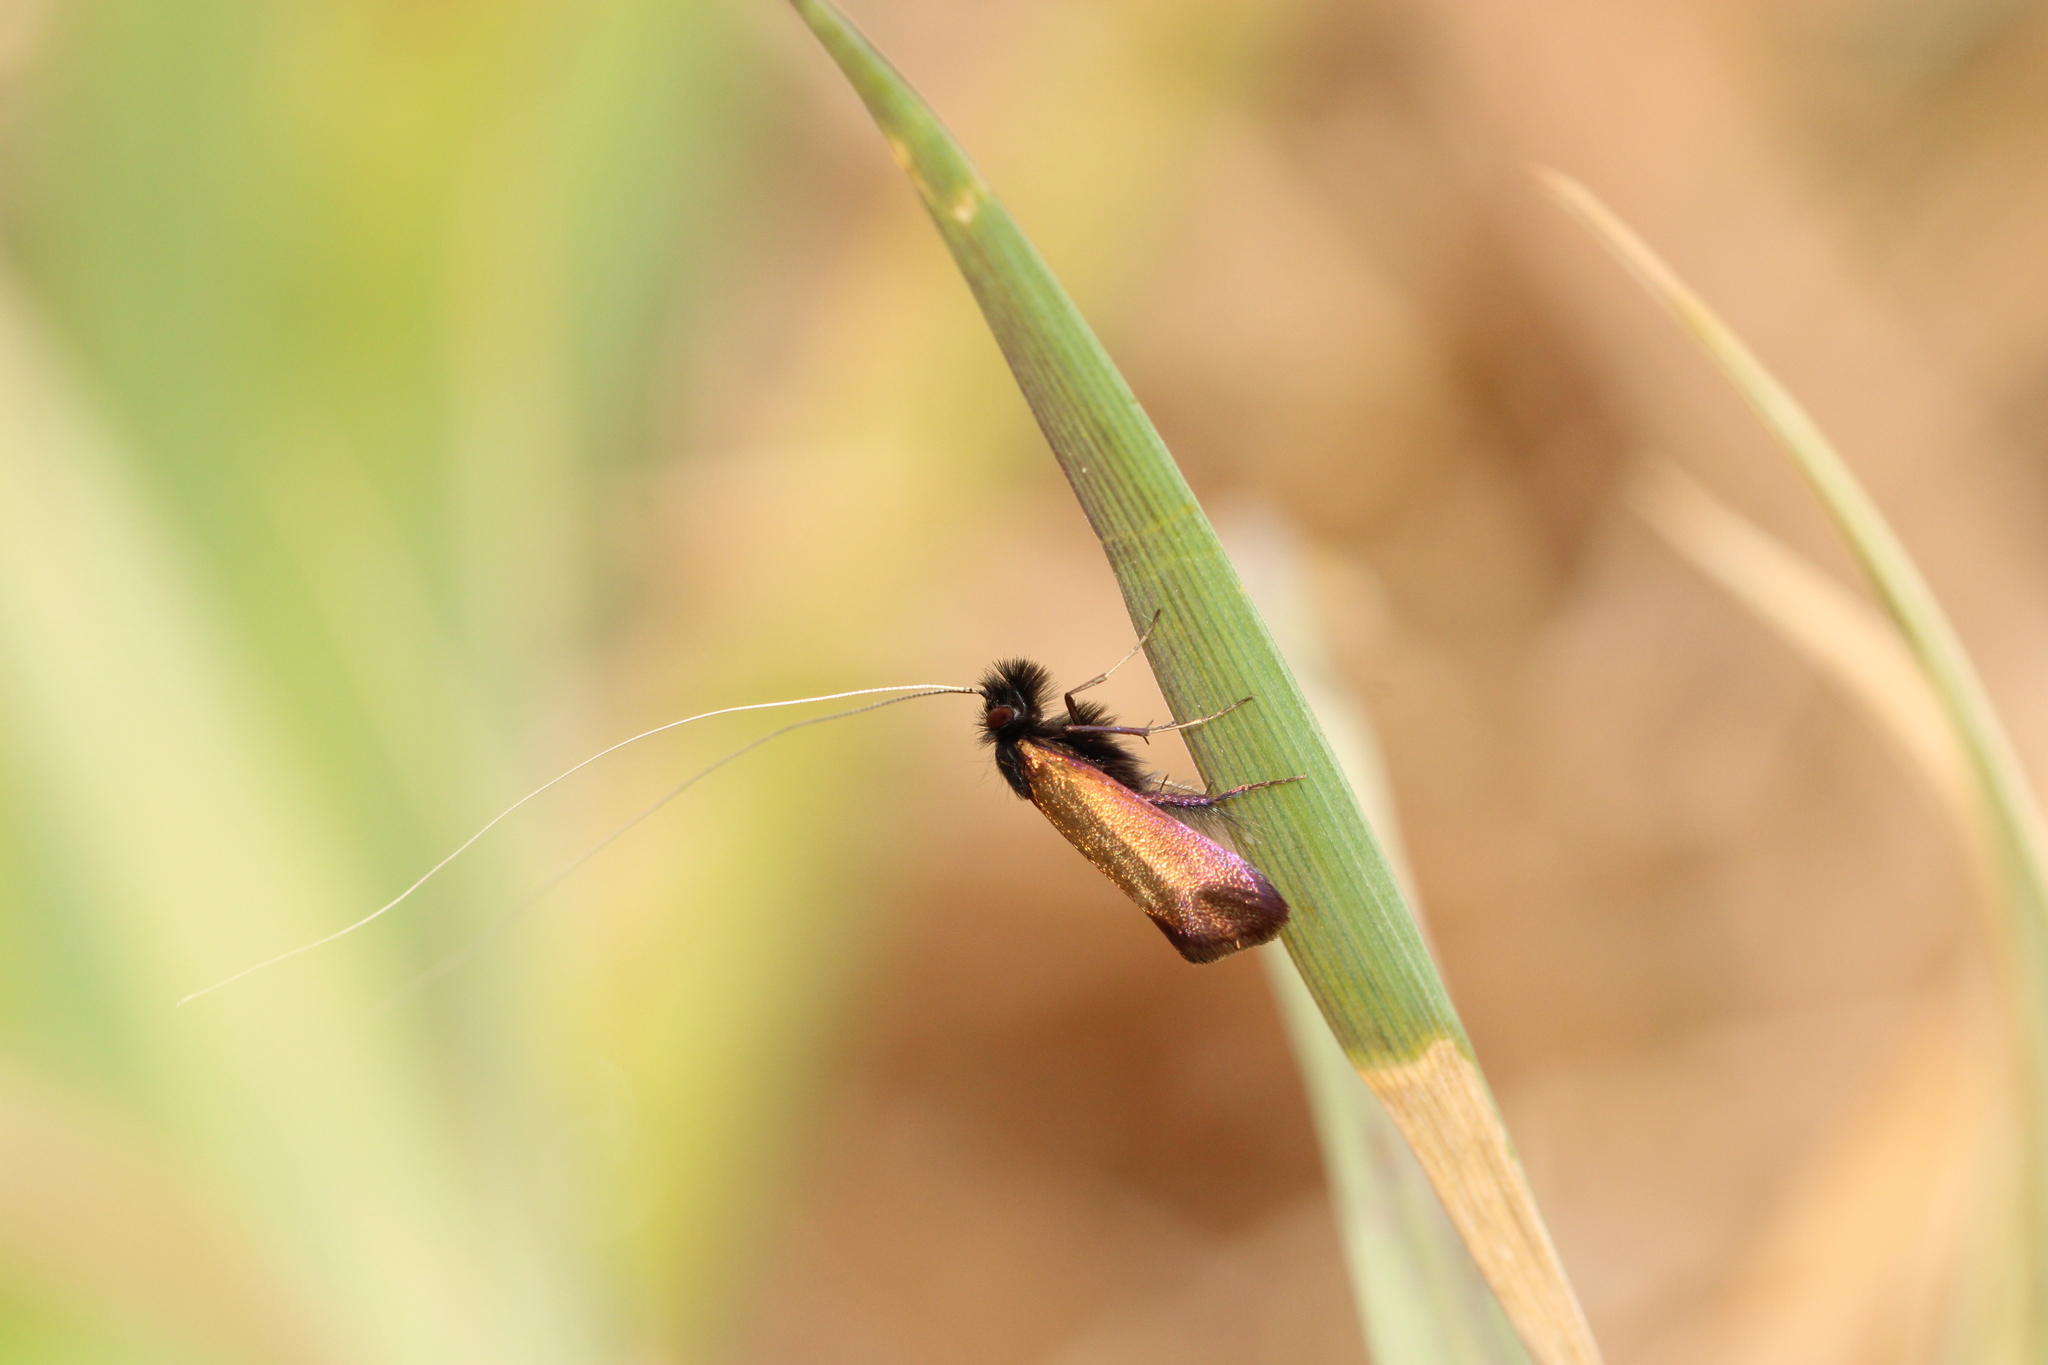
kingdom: Animalia
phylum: Arthropoda
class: Insecta
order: Lepidoptera
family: Adelidae
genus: Adela
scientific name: Adela cuprella
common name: Early long-horn
